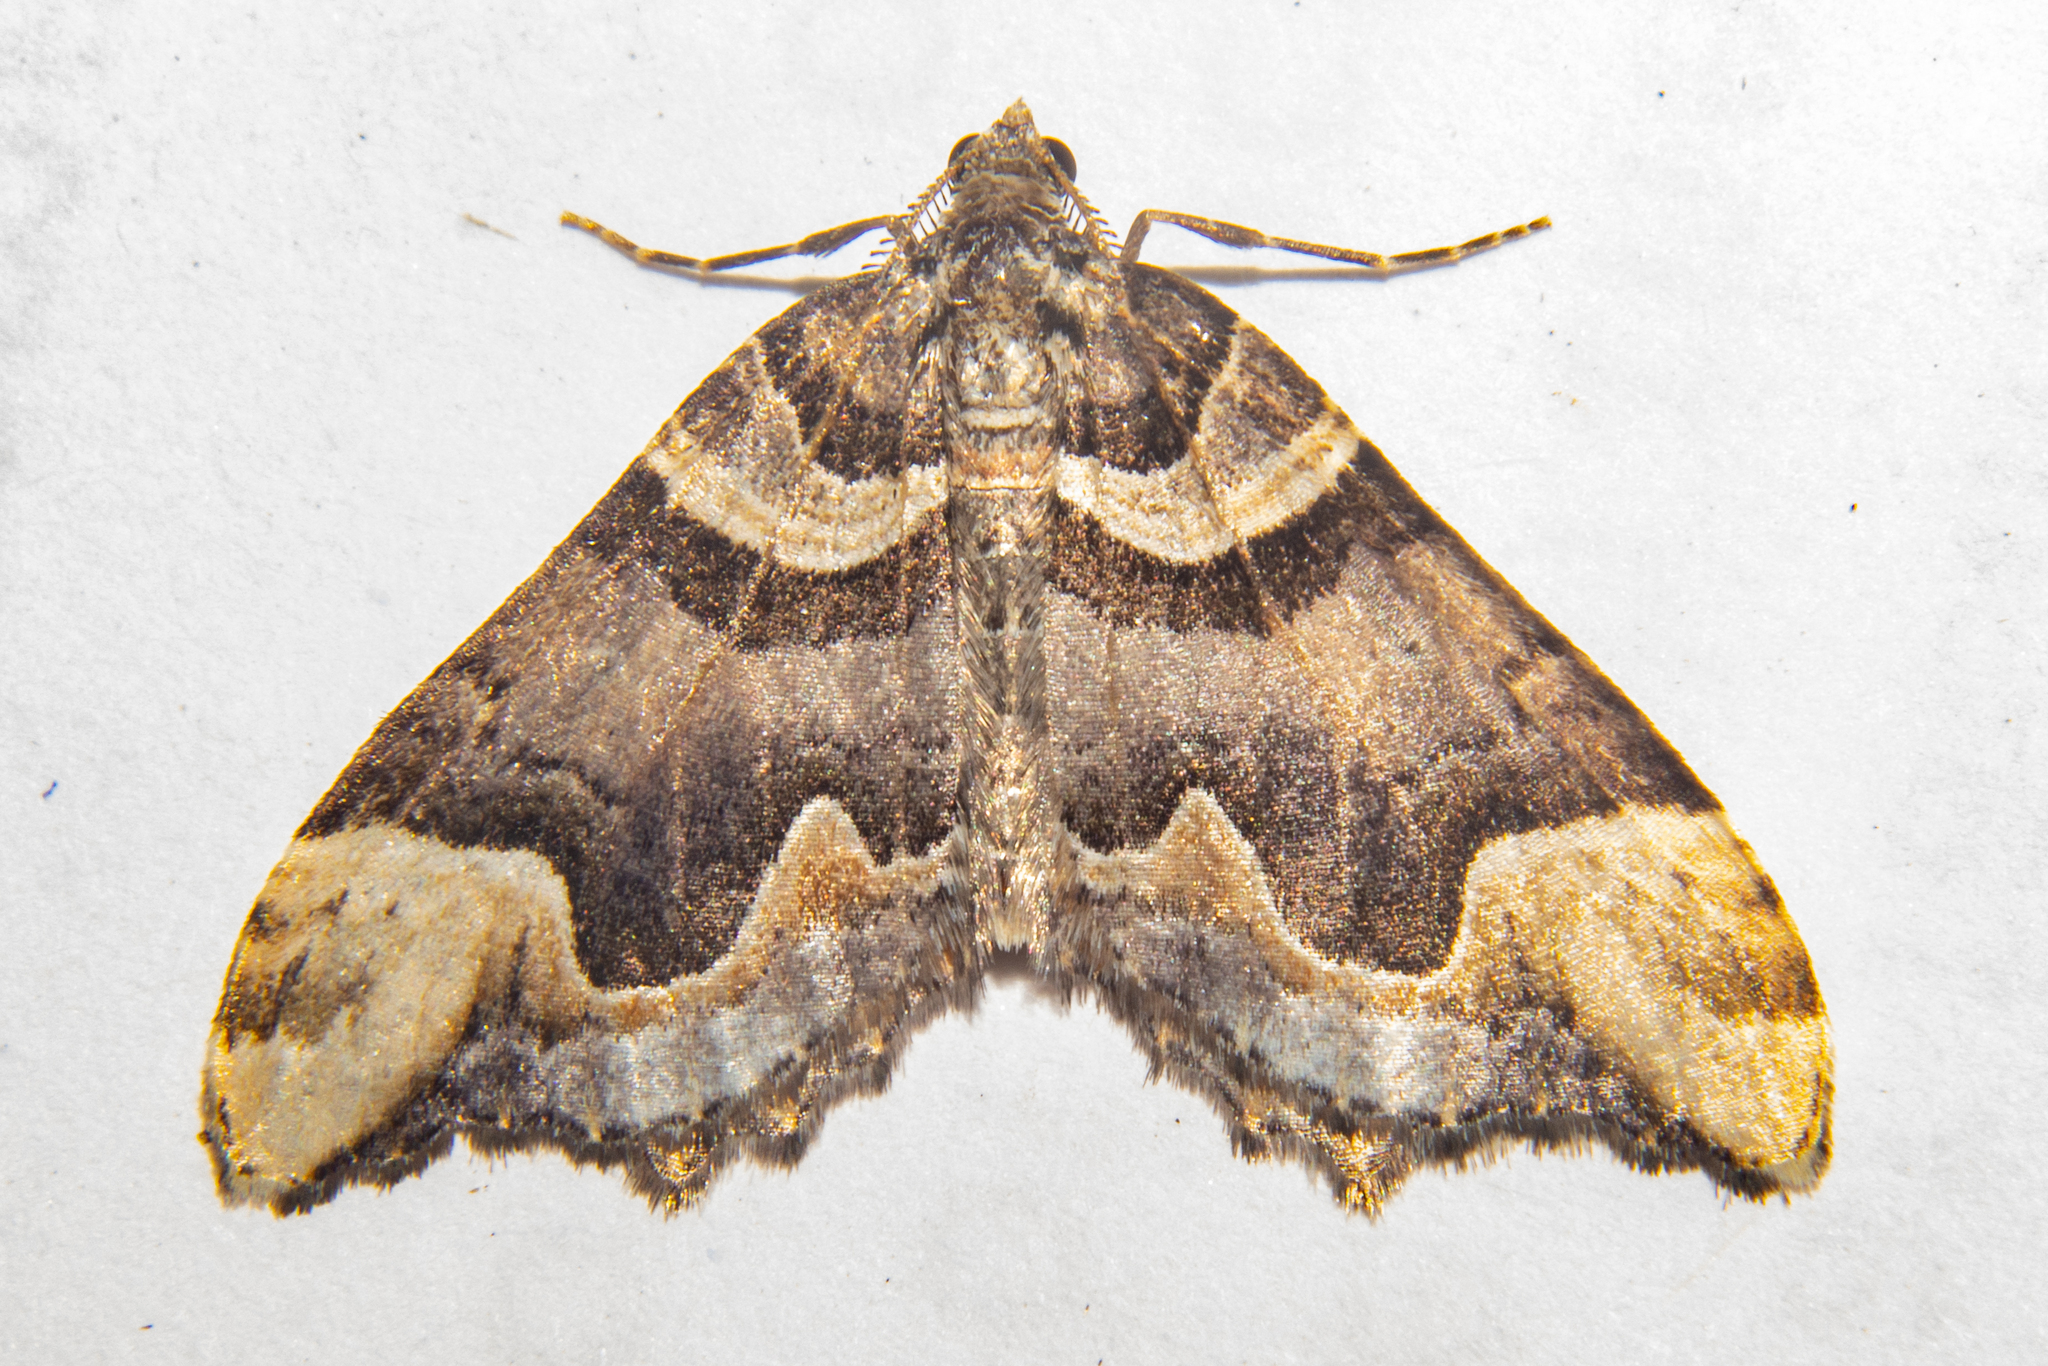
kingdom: Animalia
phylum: Arthropoda
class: Insecta
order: Lepidoptera
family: Geometridae
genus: Asaphodes
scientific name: Asaphodes chlamydota
